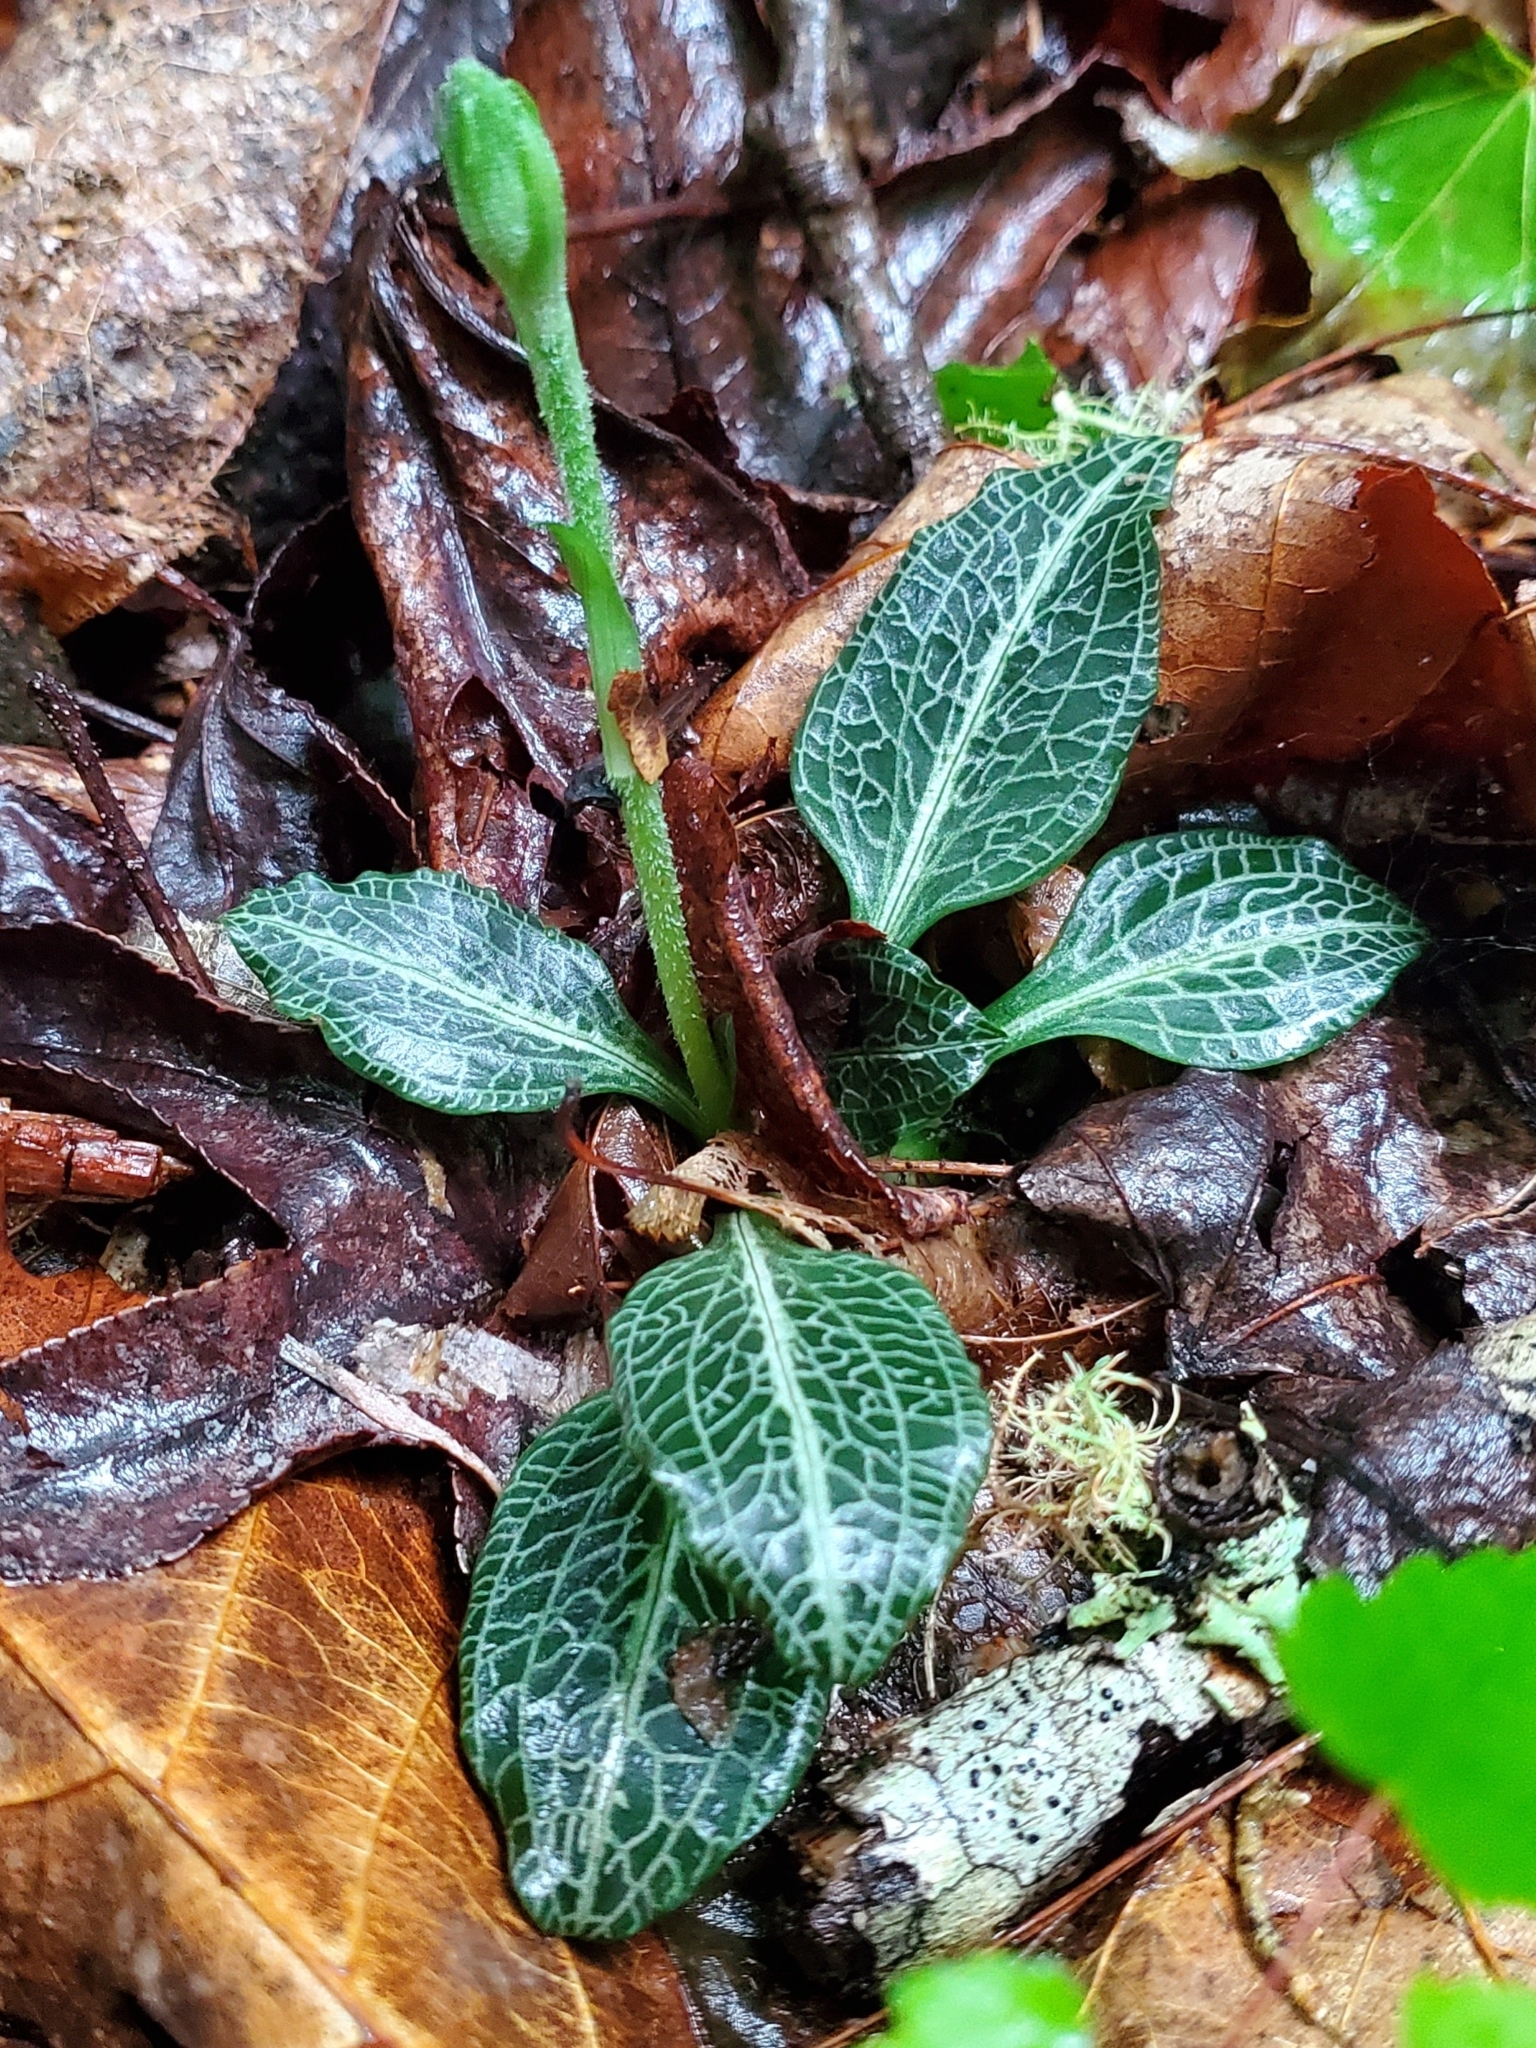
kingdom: Plantae
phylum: Tracheophyta
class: Liliopsida
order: Asparagales
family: Orchidaceae
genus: Goodyera
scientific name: Goodyera pubescens
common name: Downy rattlesnake-plantain
